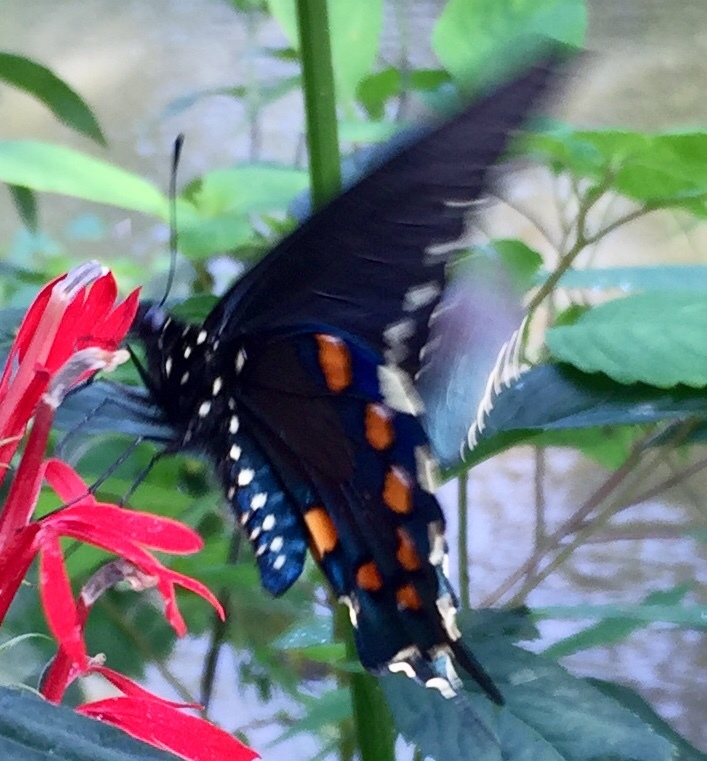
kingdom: Animalia
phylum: Arthropoda
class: Insecta
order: Lepidoptera
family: Papilionidae
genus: Battus
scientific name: Battus philenor
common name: Pipevine swallowtail
